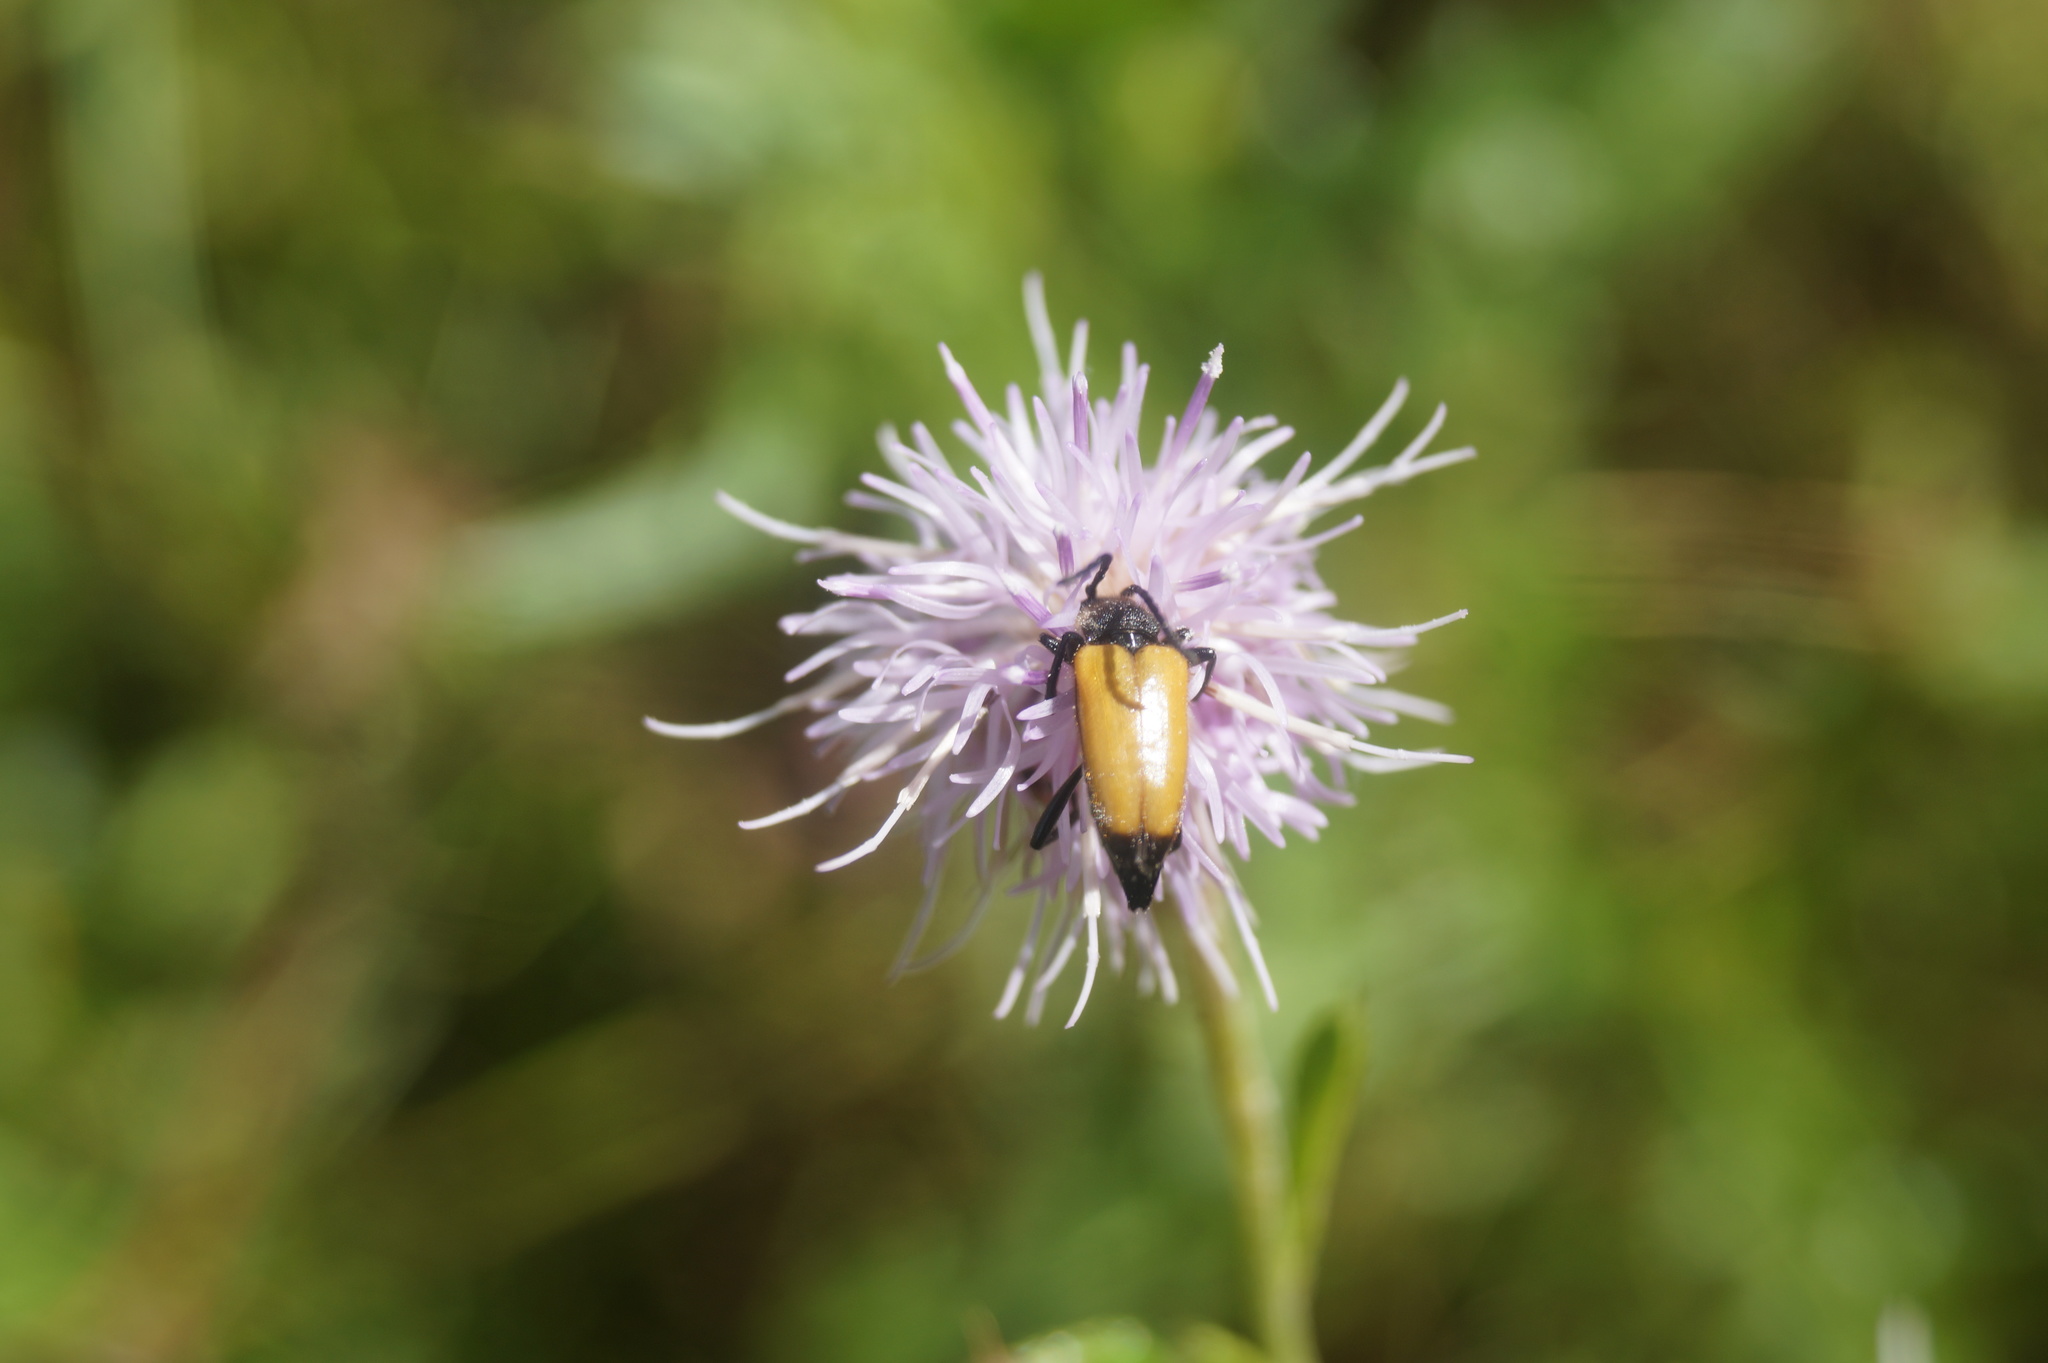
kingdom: Animalia
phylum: Arthropoda
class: Insecta
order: Coleoptera
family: Cerambycidae
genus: Paracorymbia
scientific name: Paracorymbia fulva
